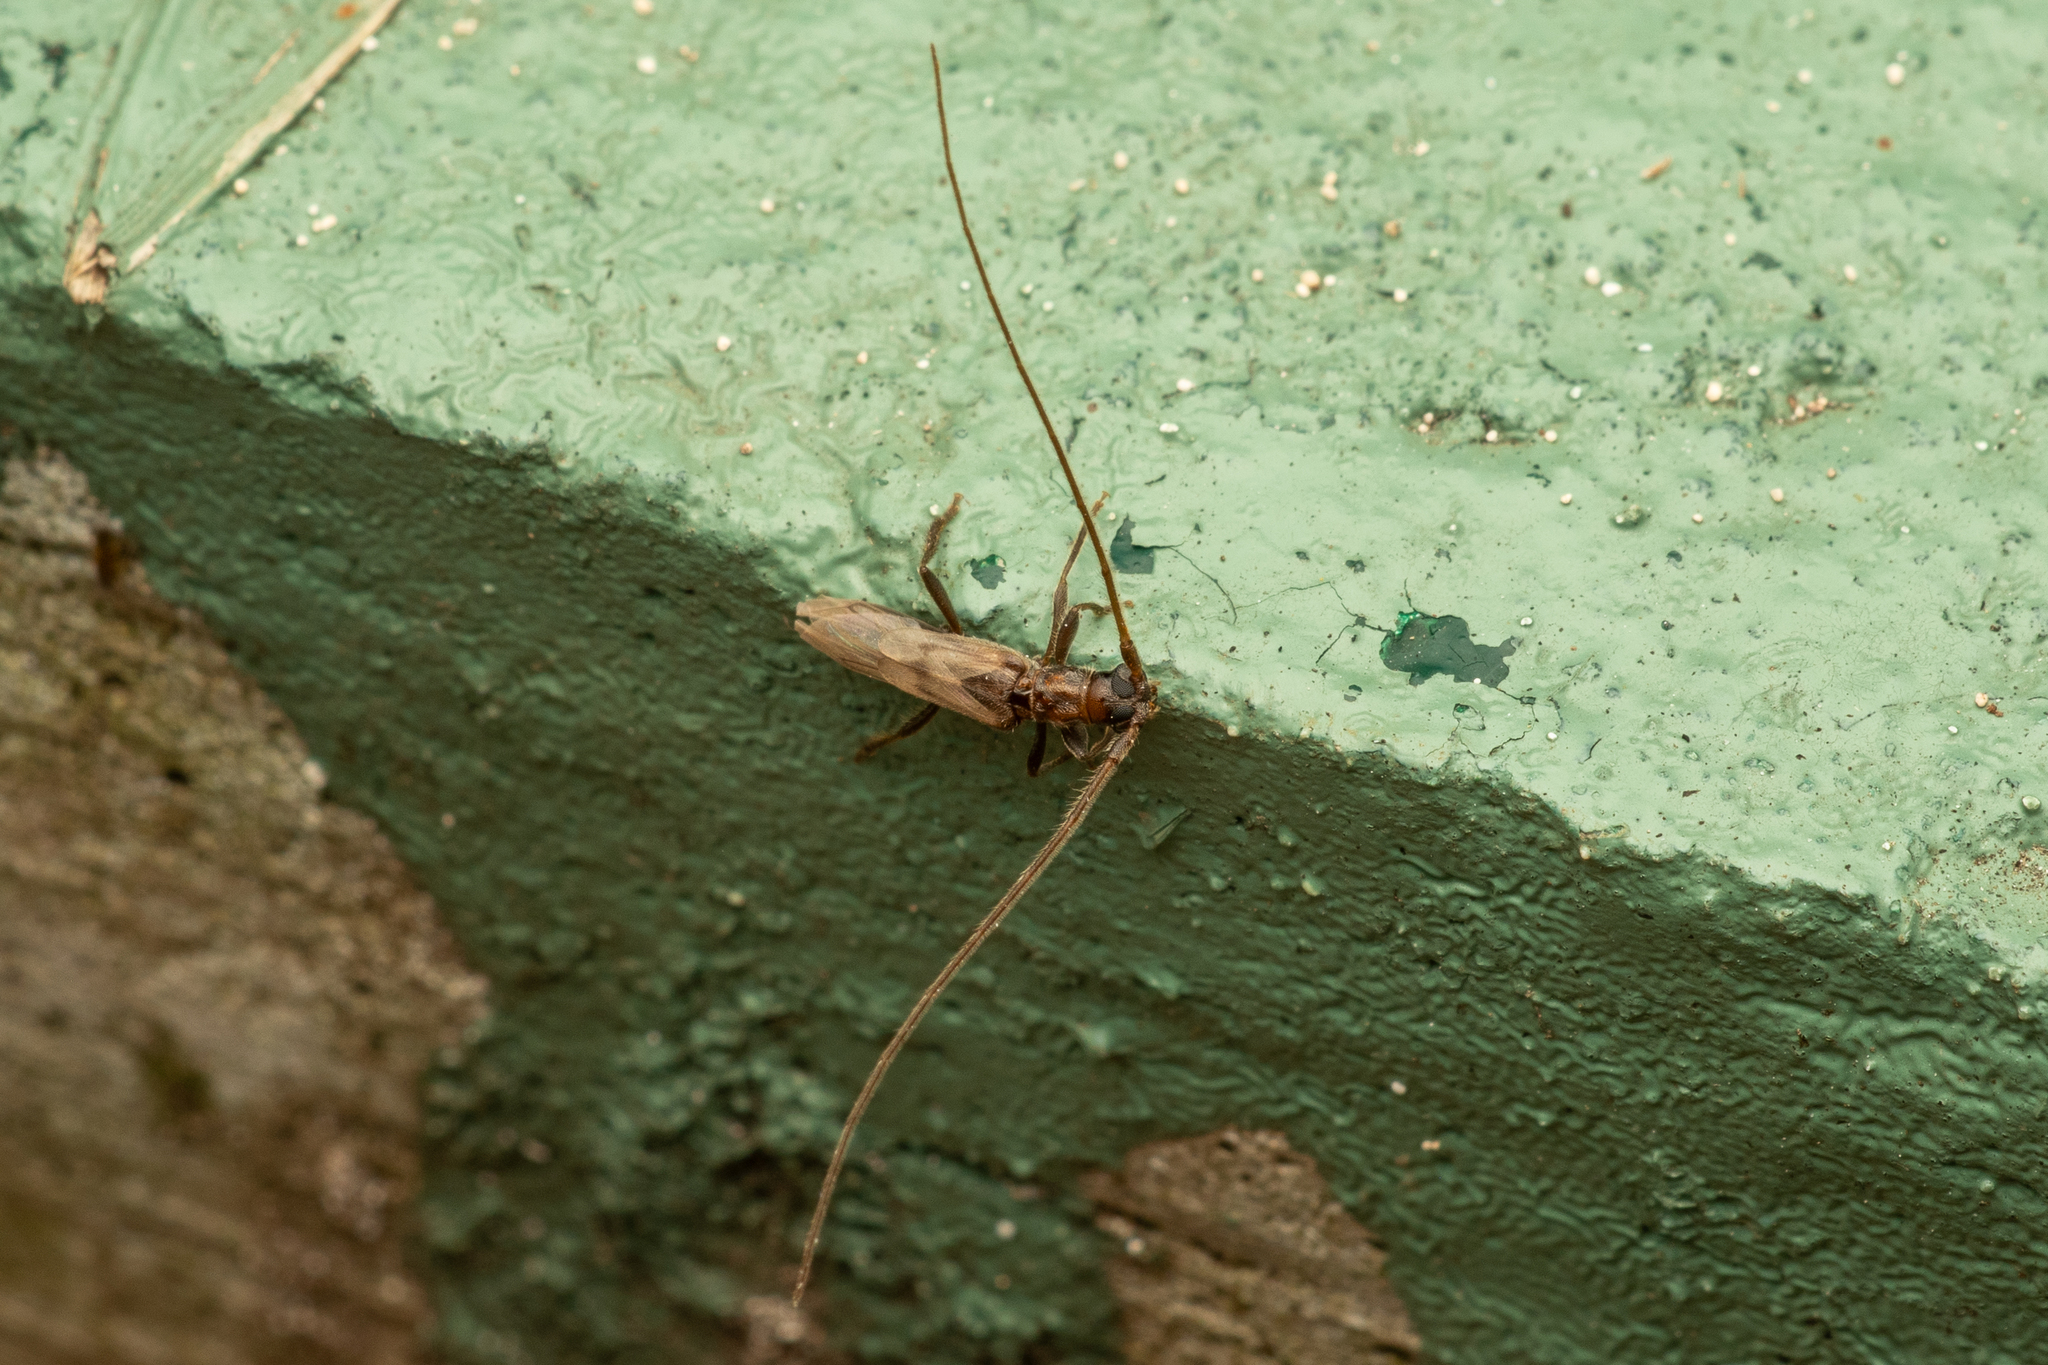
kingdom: Animalia
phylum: Arthropoda
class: Insecta
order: Coleoptera
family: Cerambycidae
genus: Methia
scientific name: Methia necydalea
